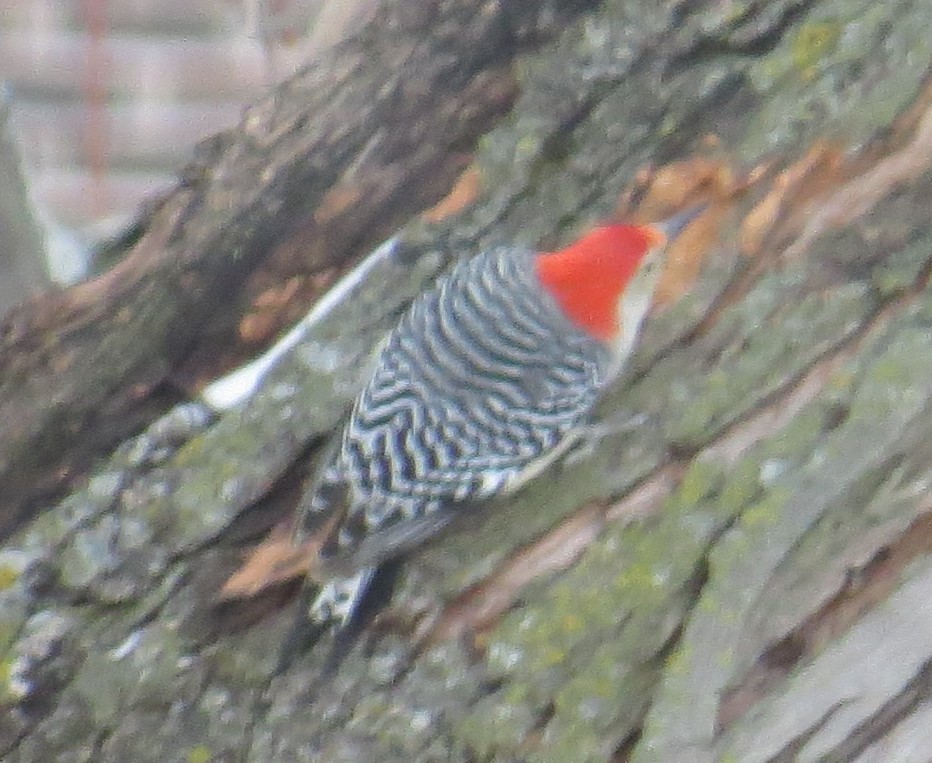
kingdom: Animalia
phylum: Chordata
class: Aves
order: Piciformes
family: Picidae
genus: Melanerpes
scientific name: Melanerpes carolinus
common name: Red-bellied woodpecker
